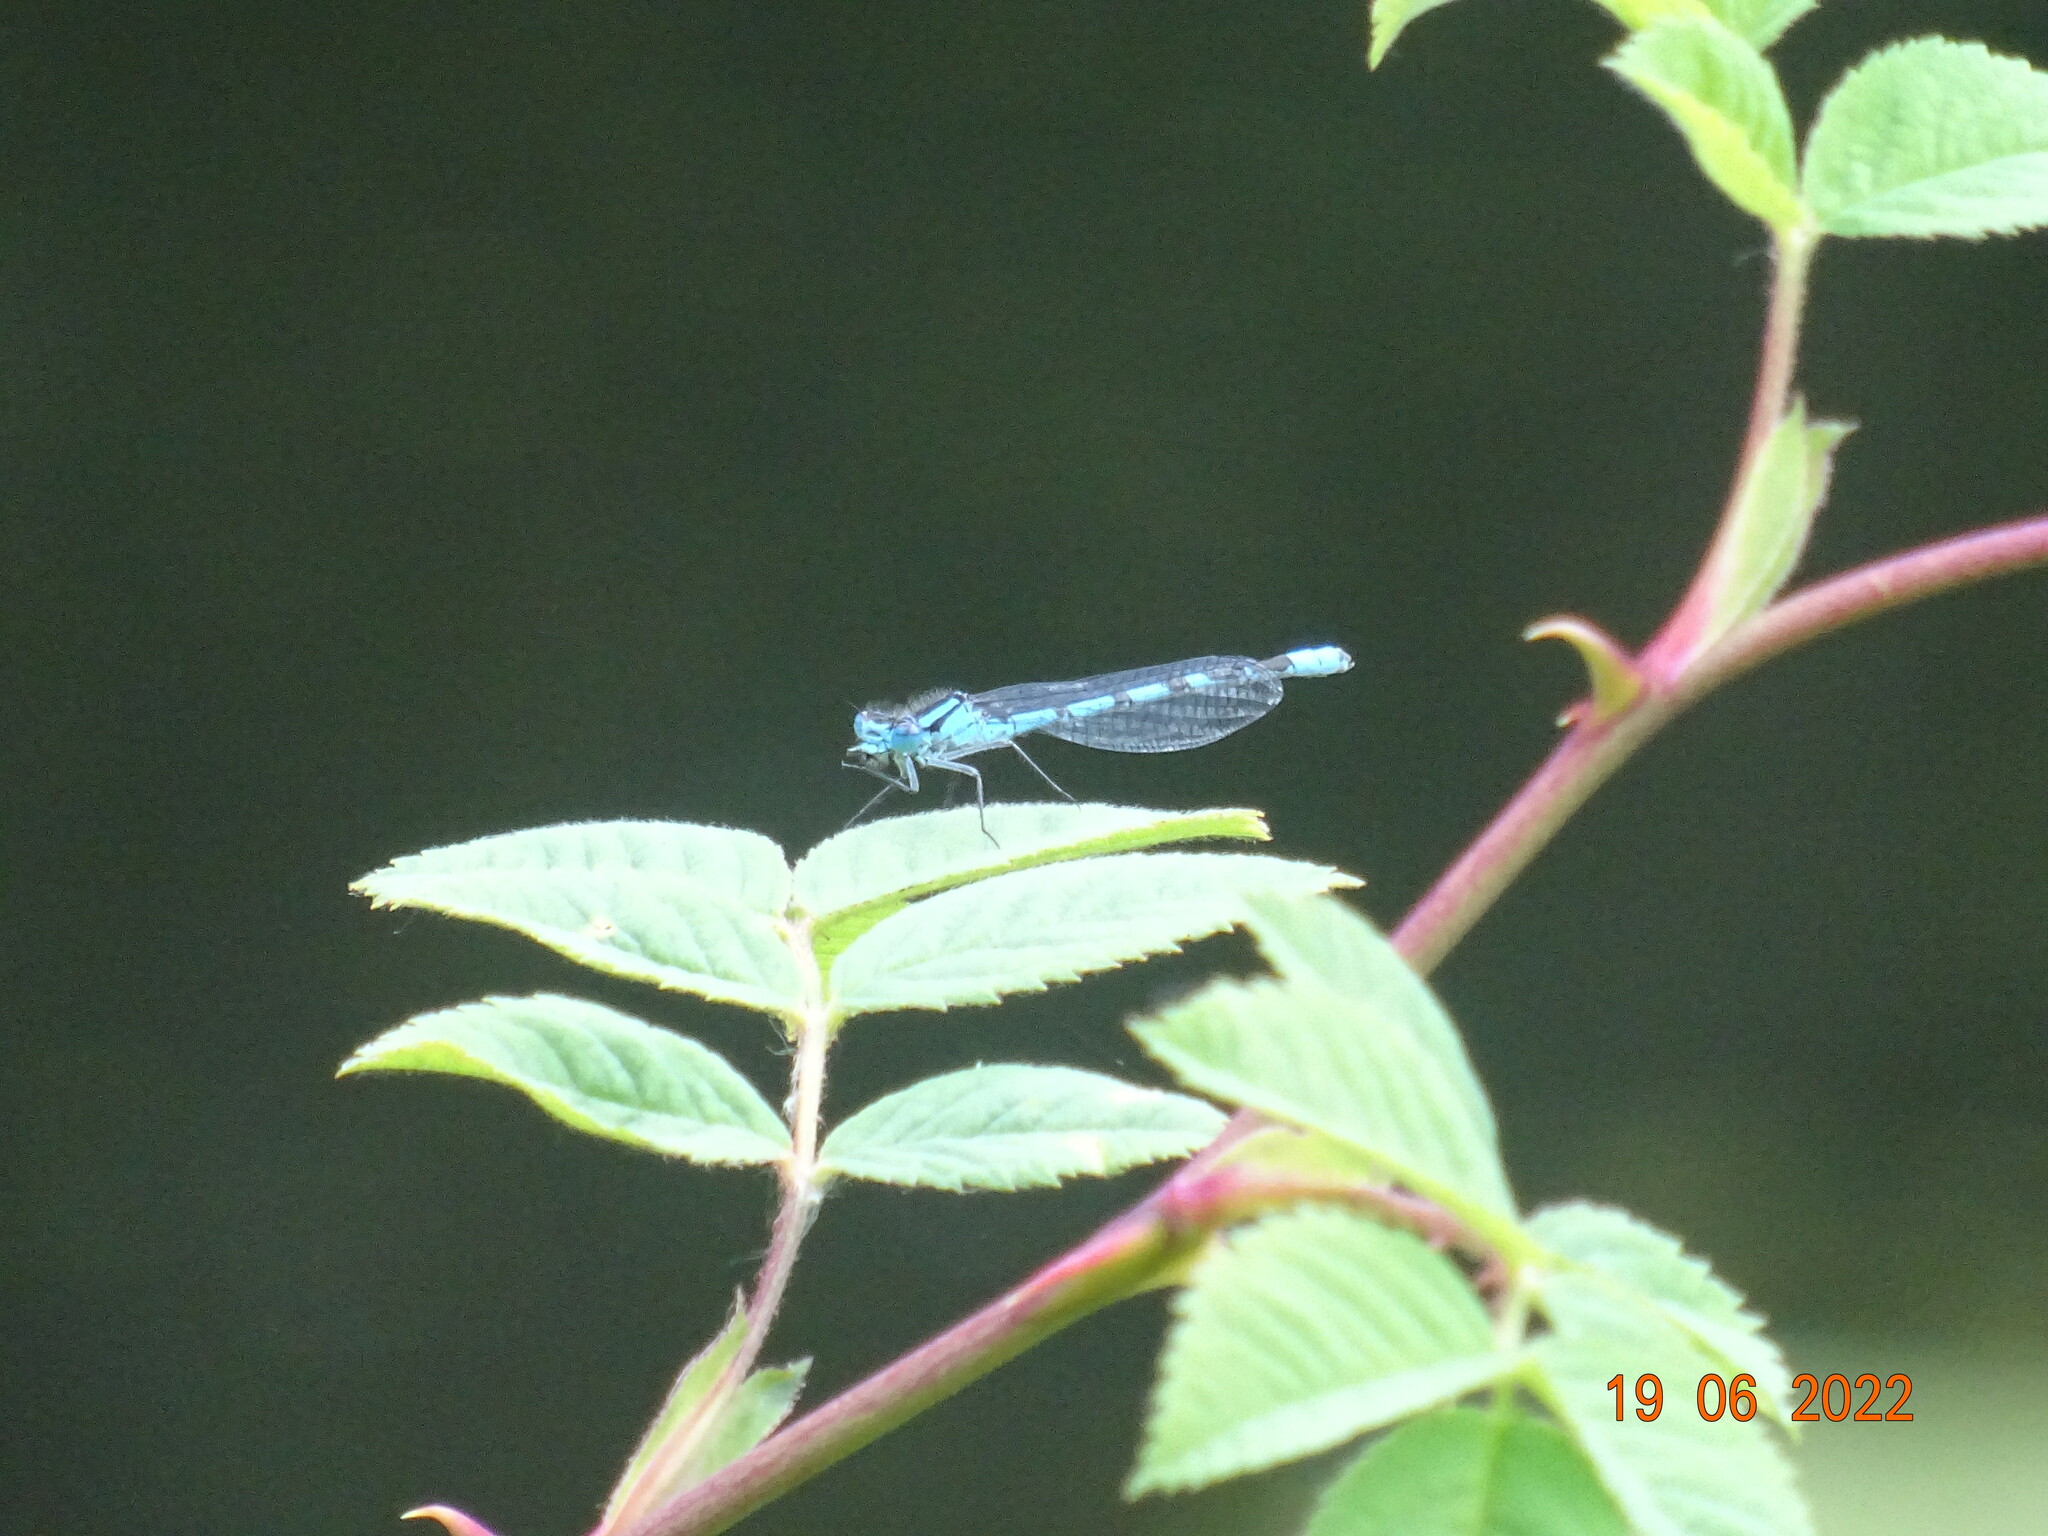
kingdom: Animalia
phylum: Arthropoda
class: Insecta
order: Odonata
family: Coenagrionidae
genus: Enallagma
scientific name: Enallagma cyathigerum
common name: Common blue damselfly
